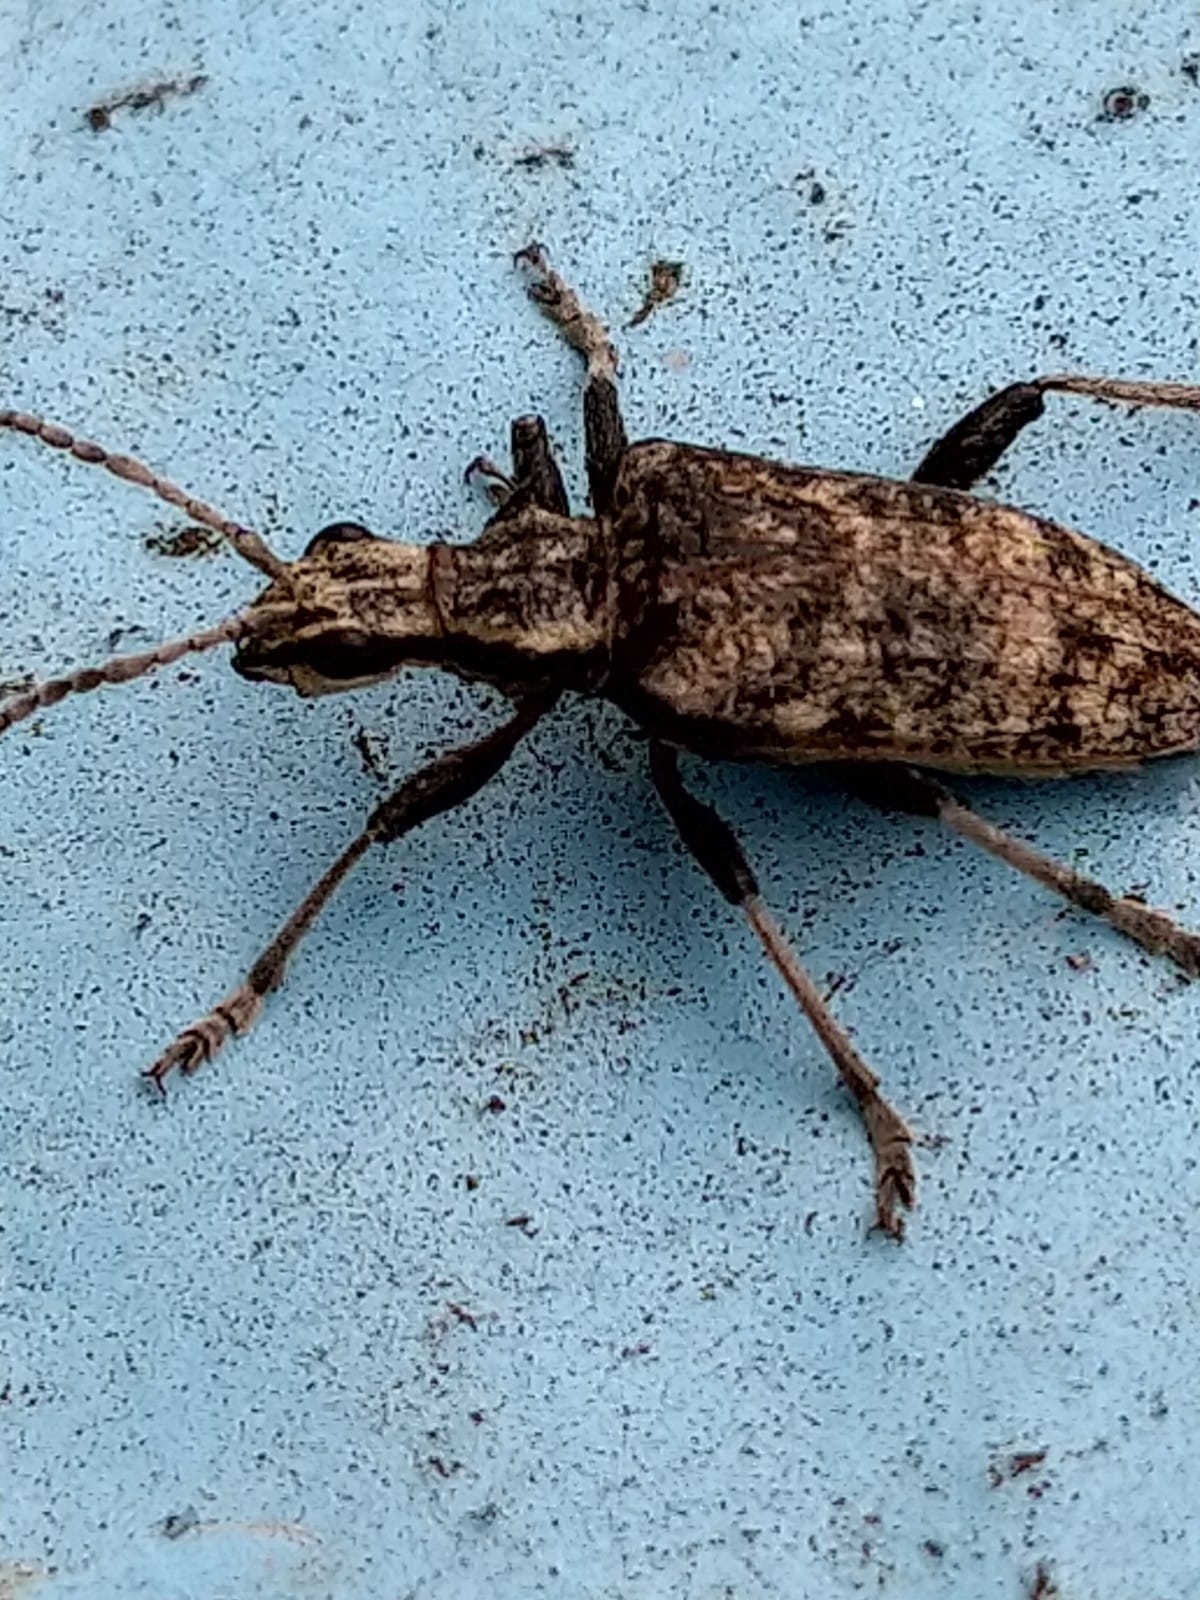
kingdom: Animalia
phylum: Arthropoda
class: Insecta
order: Coleoptera
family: Cerambycidae
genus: Rhagium
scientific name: Rhagium inquisitor
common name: Ribbed pine borer
